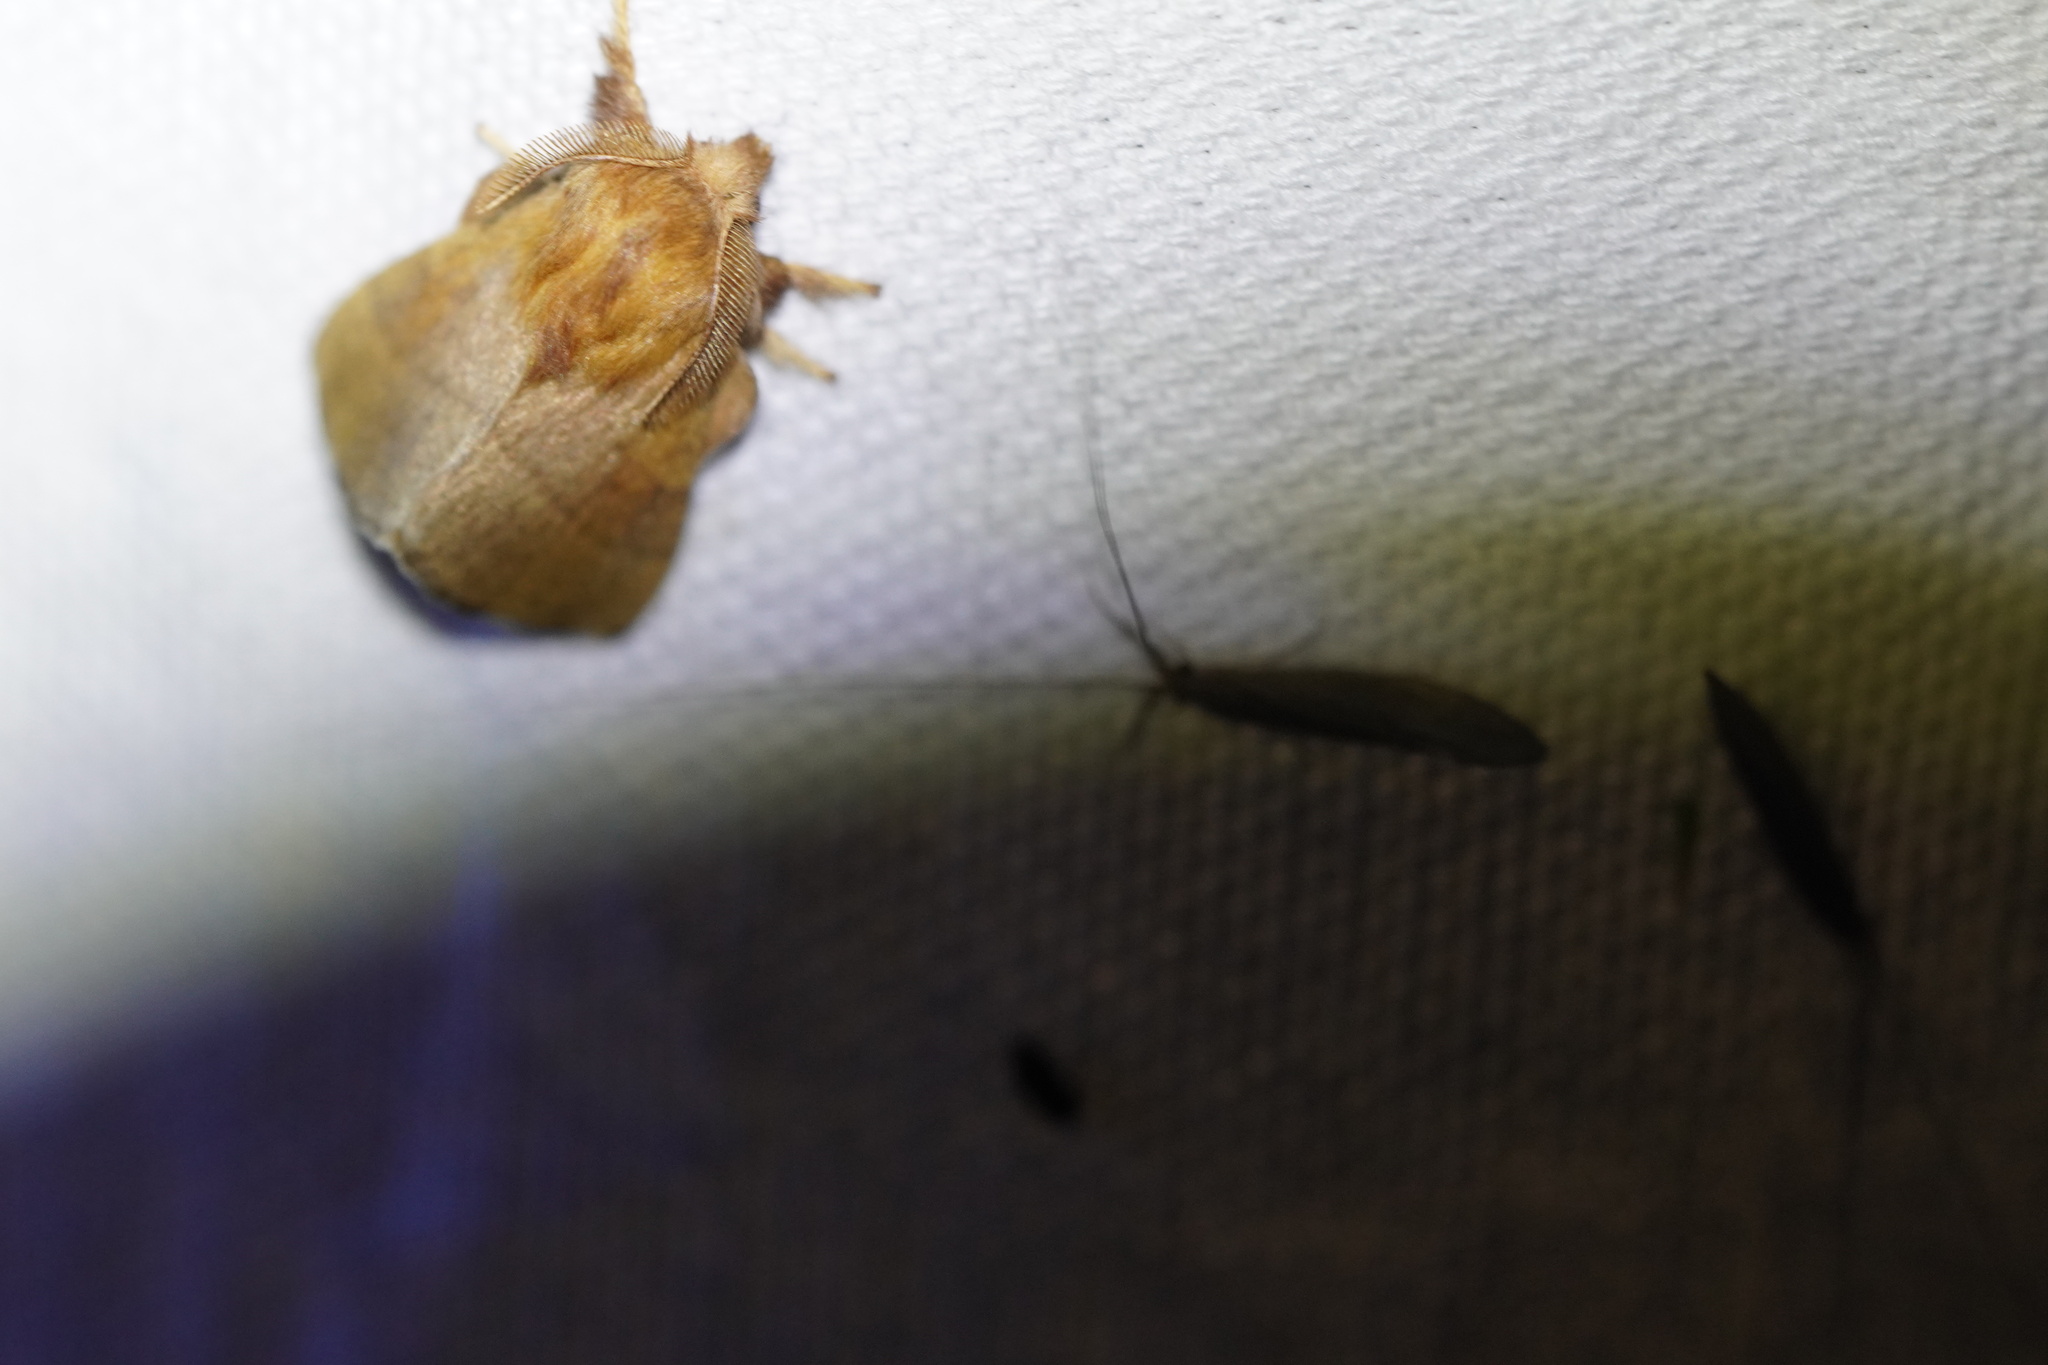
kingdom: Animalia
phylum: Arthropoda
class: Insecta
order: Lepidoptera
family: Lasiocampidae
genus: Malacosoma
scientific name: Malacosoma disstria
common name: Forest tent caterpillar
